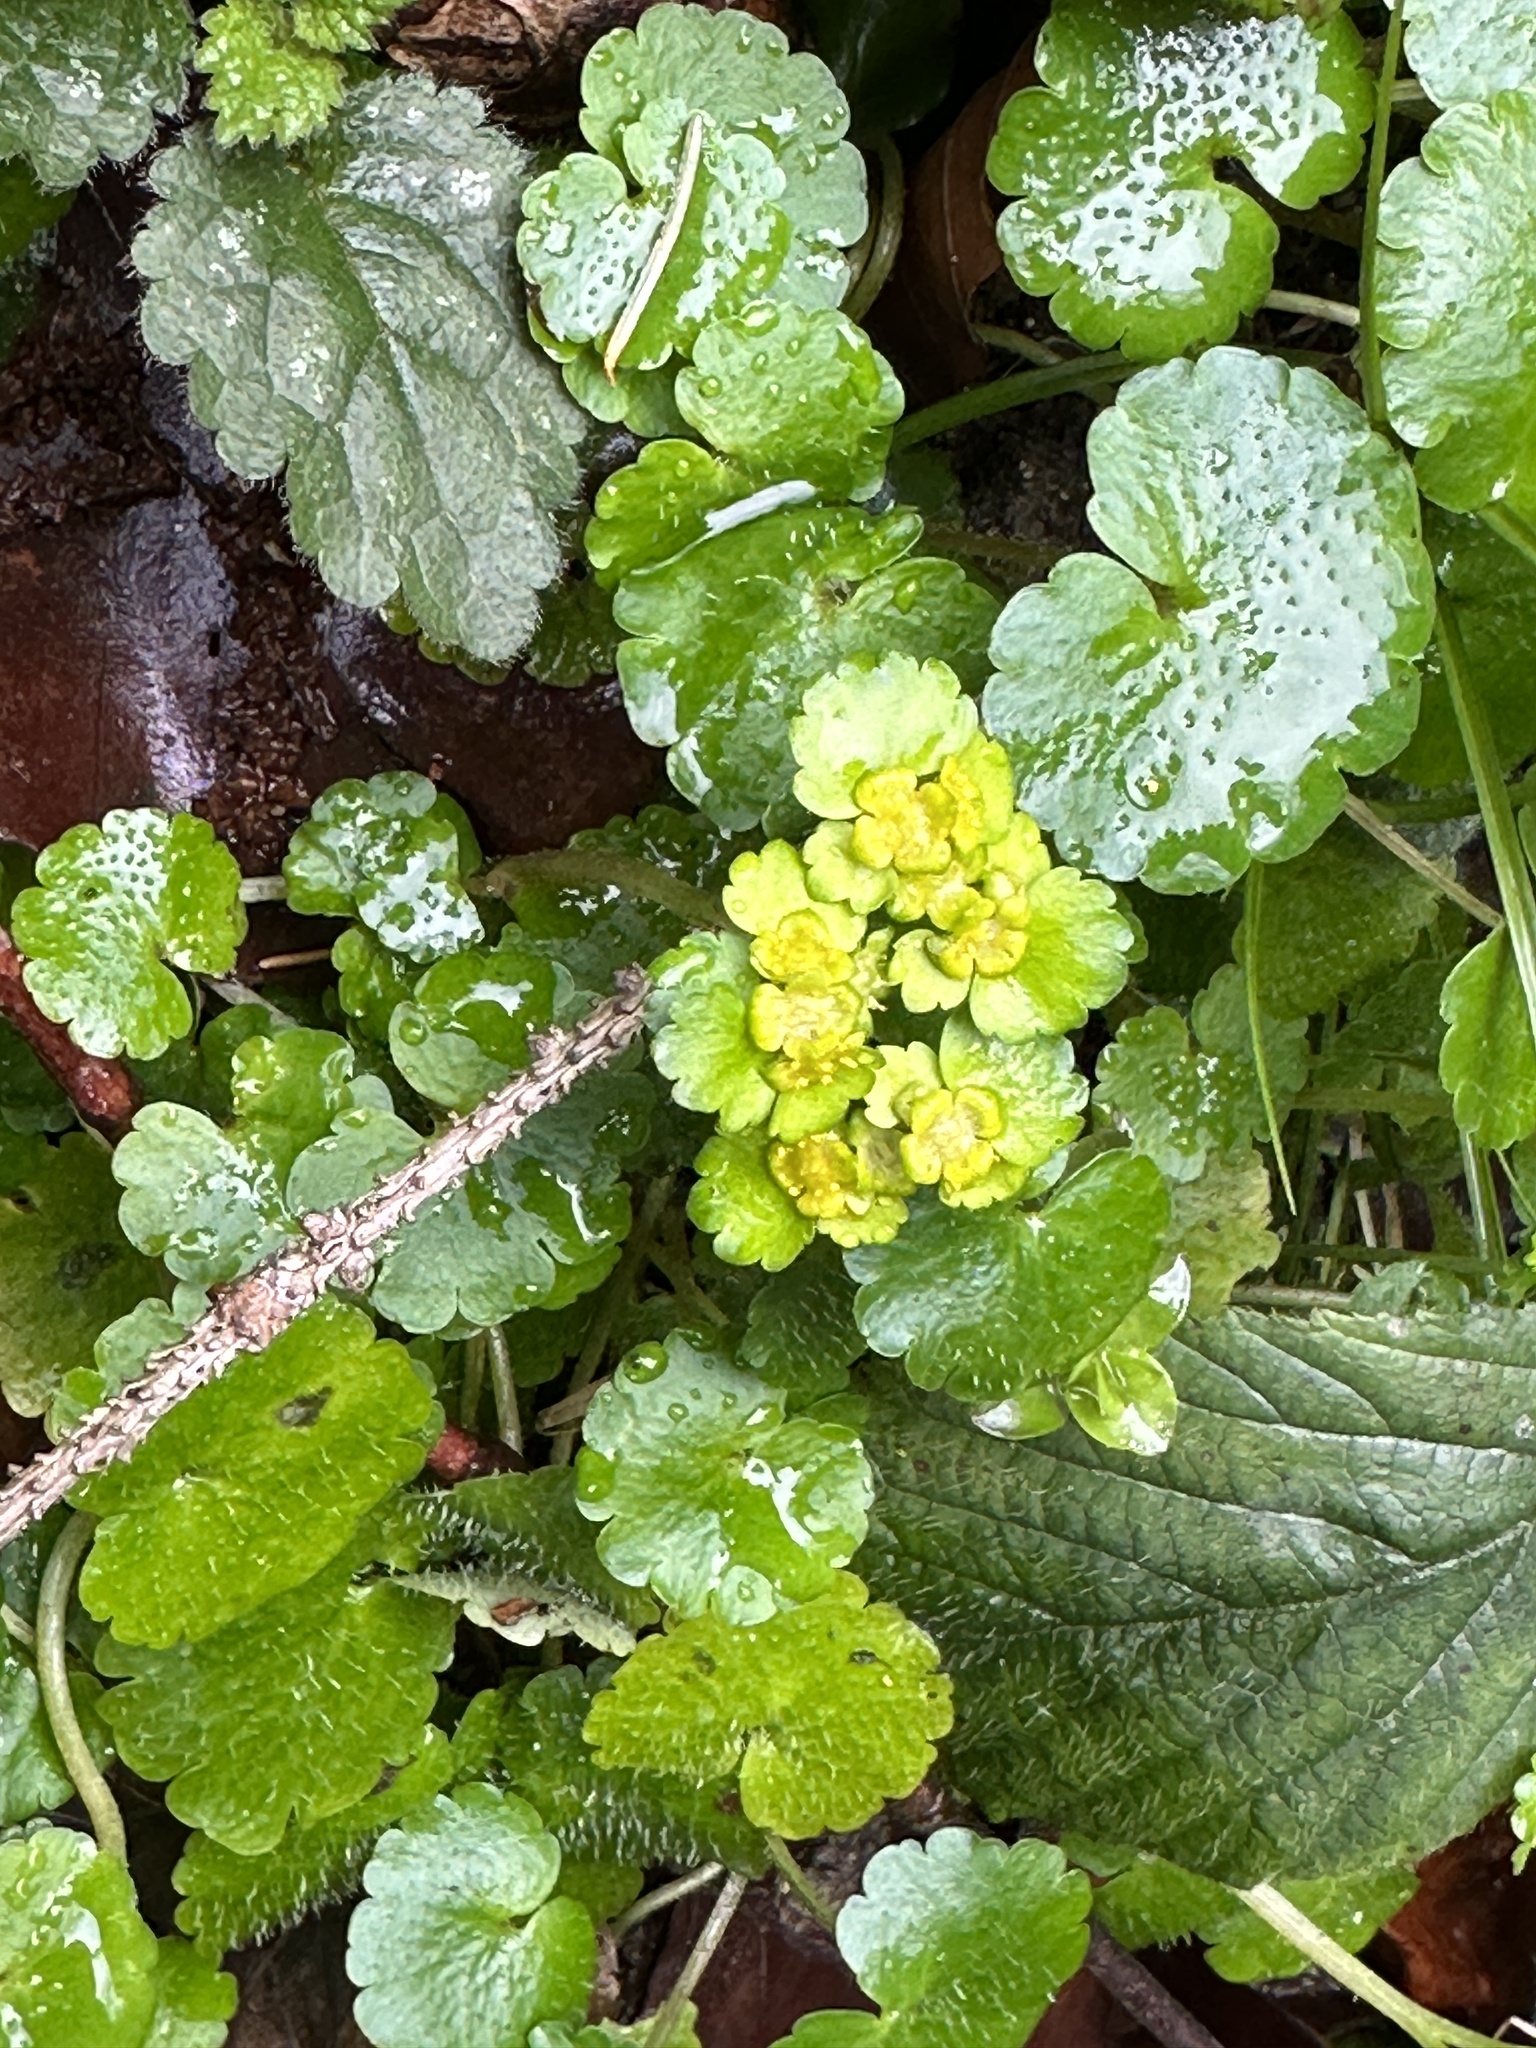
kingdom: Plantae
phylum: Tracheophyta
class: Magnoliopsida
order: Saxifragales
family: Saxifragaceae
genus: Chrysosplenium
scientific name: Chrysosplenium alternifolium
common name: Alternate-leaved golden-saxifrage
